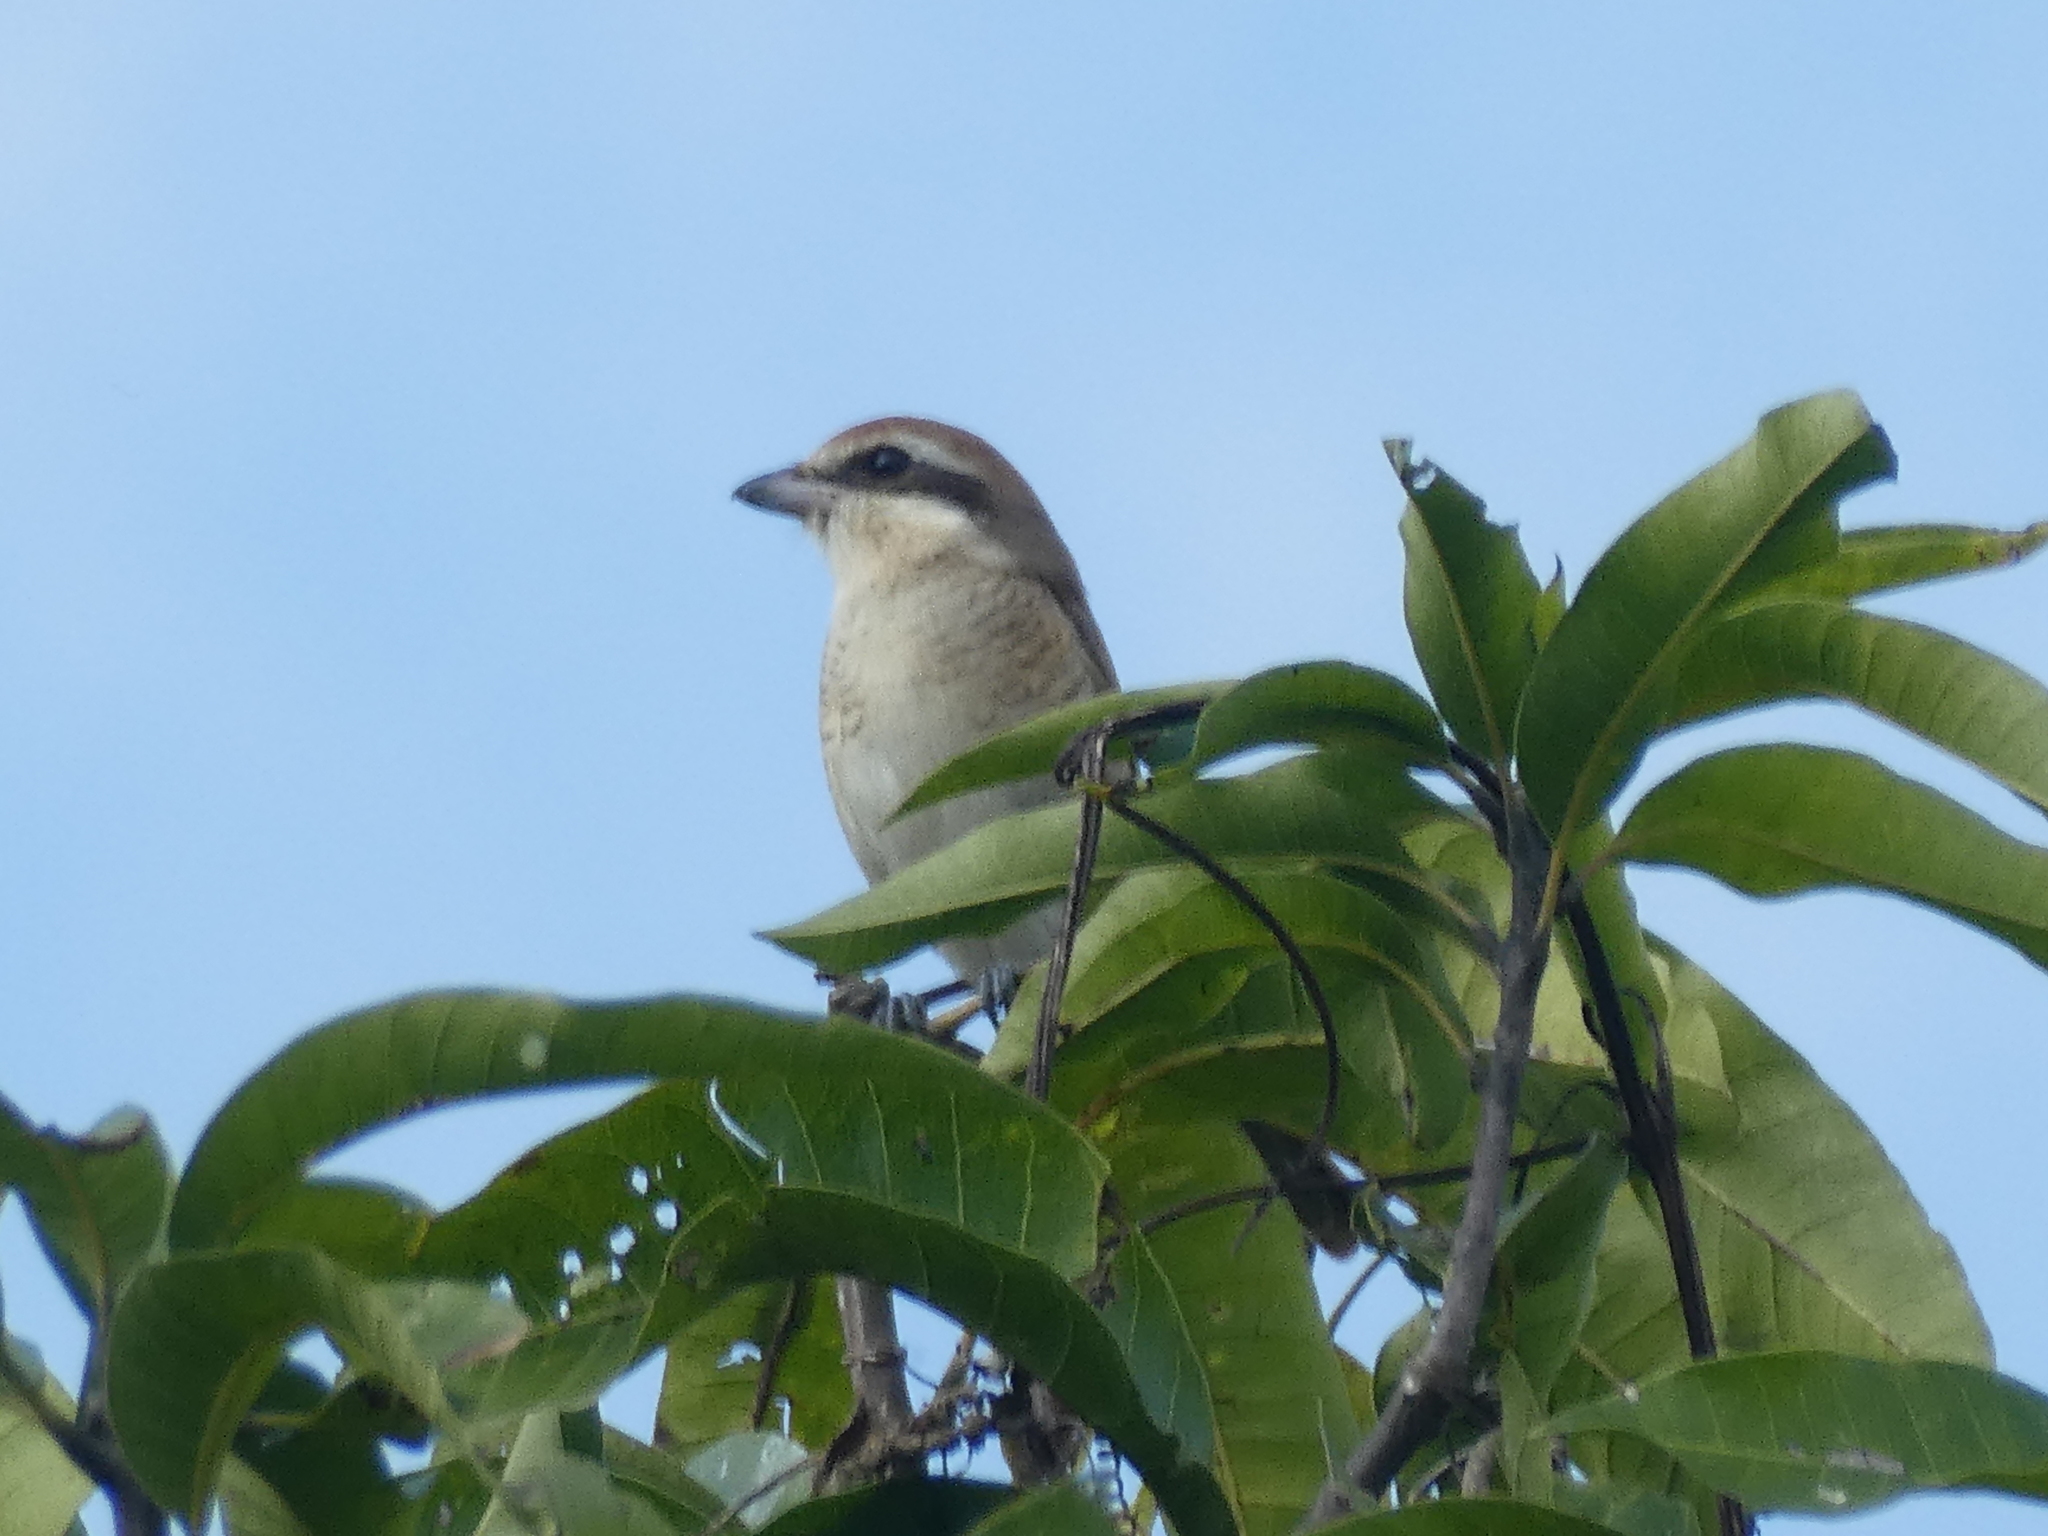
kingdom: Animalia
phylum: Chordata
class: Aves
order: Passeriformes
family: Laniidae
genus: Lanius
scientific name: Lanius cristatus
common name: Brown shrike
